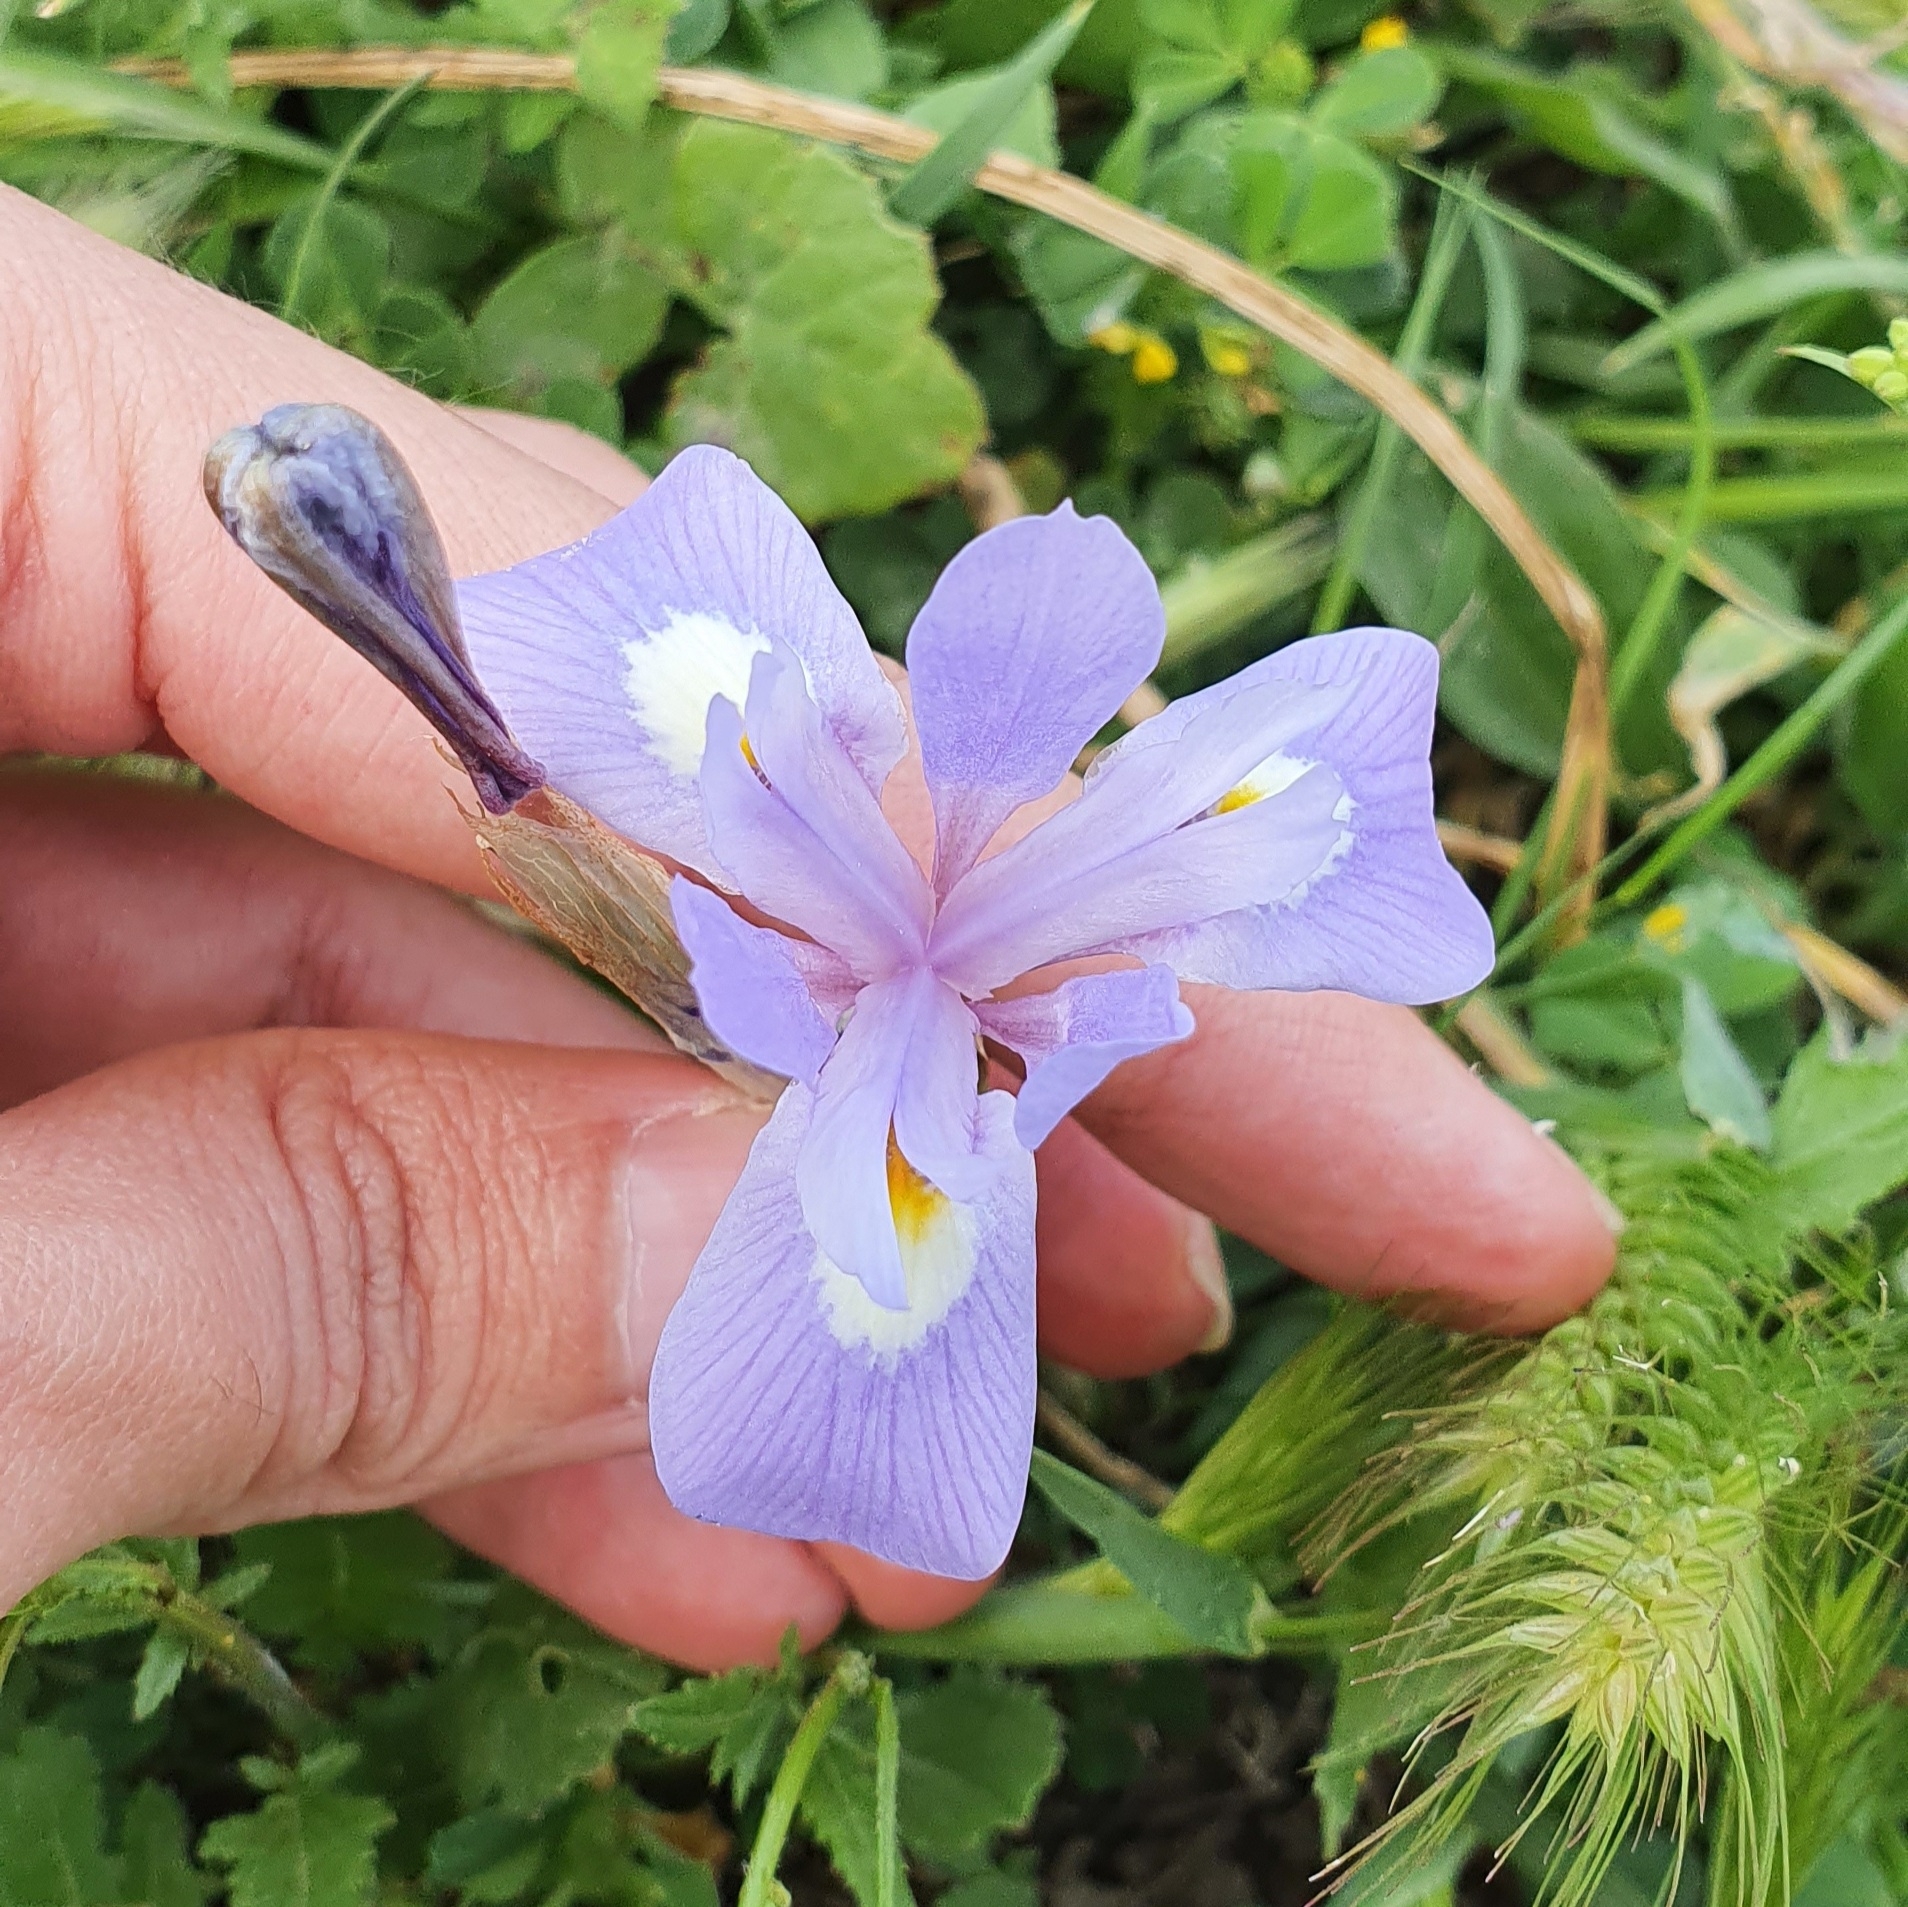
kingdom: Plantae
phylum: Tracheophyta
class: Liliopsida
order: Asparagales
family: Iridaceae
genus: Moraea
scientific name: Moraea sisyrinchium
